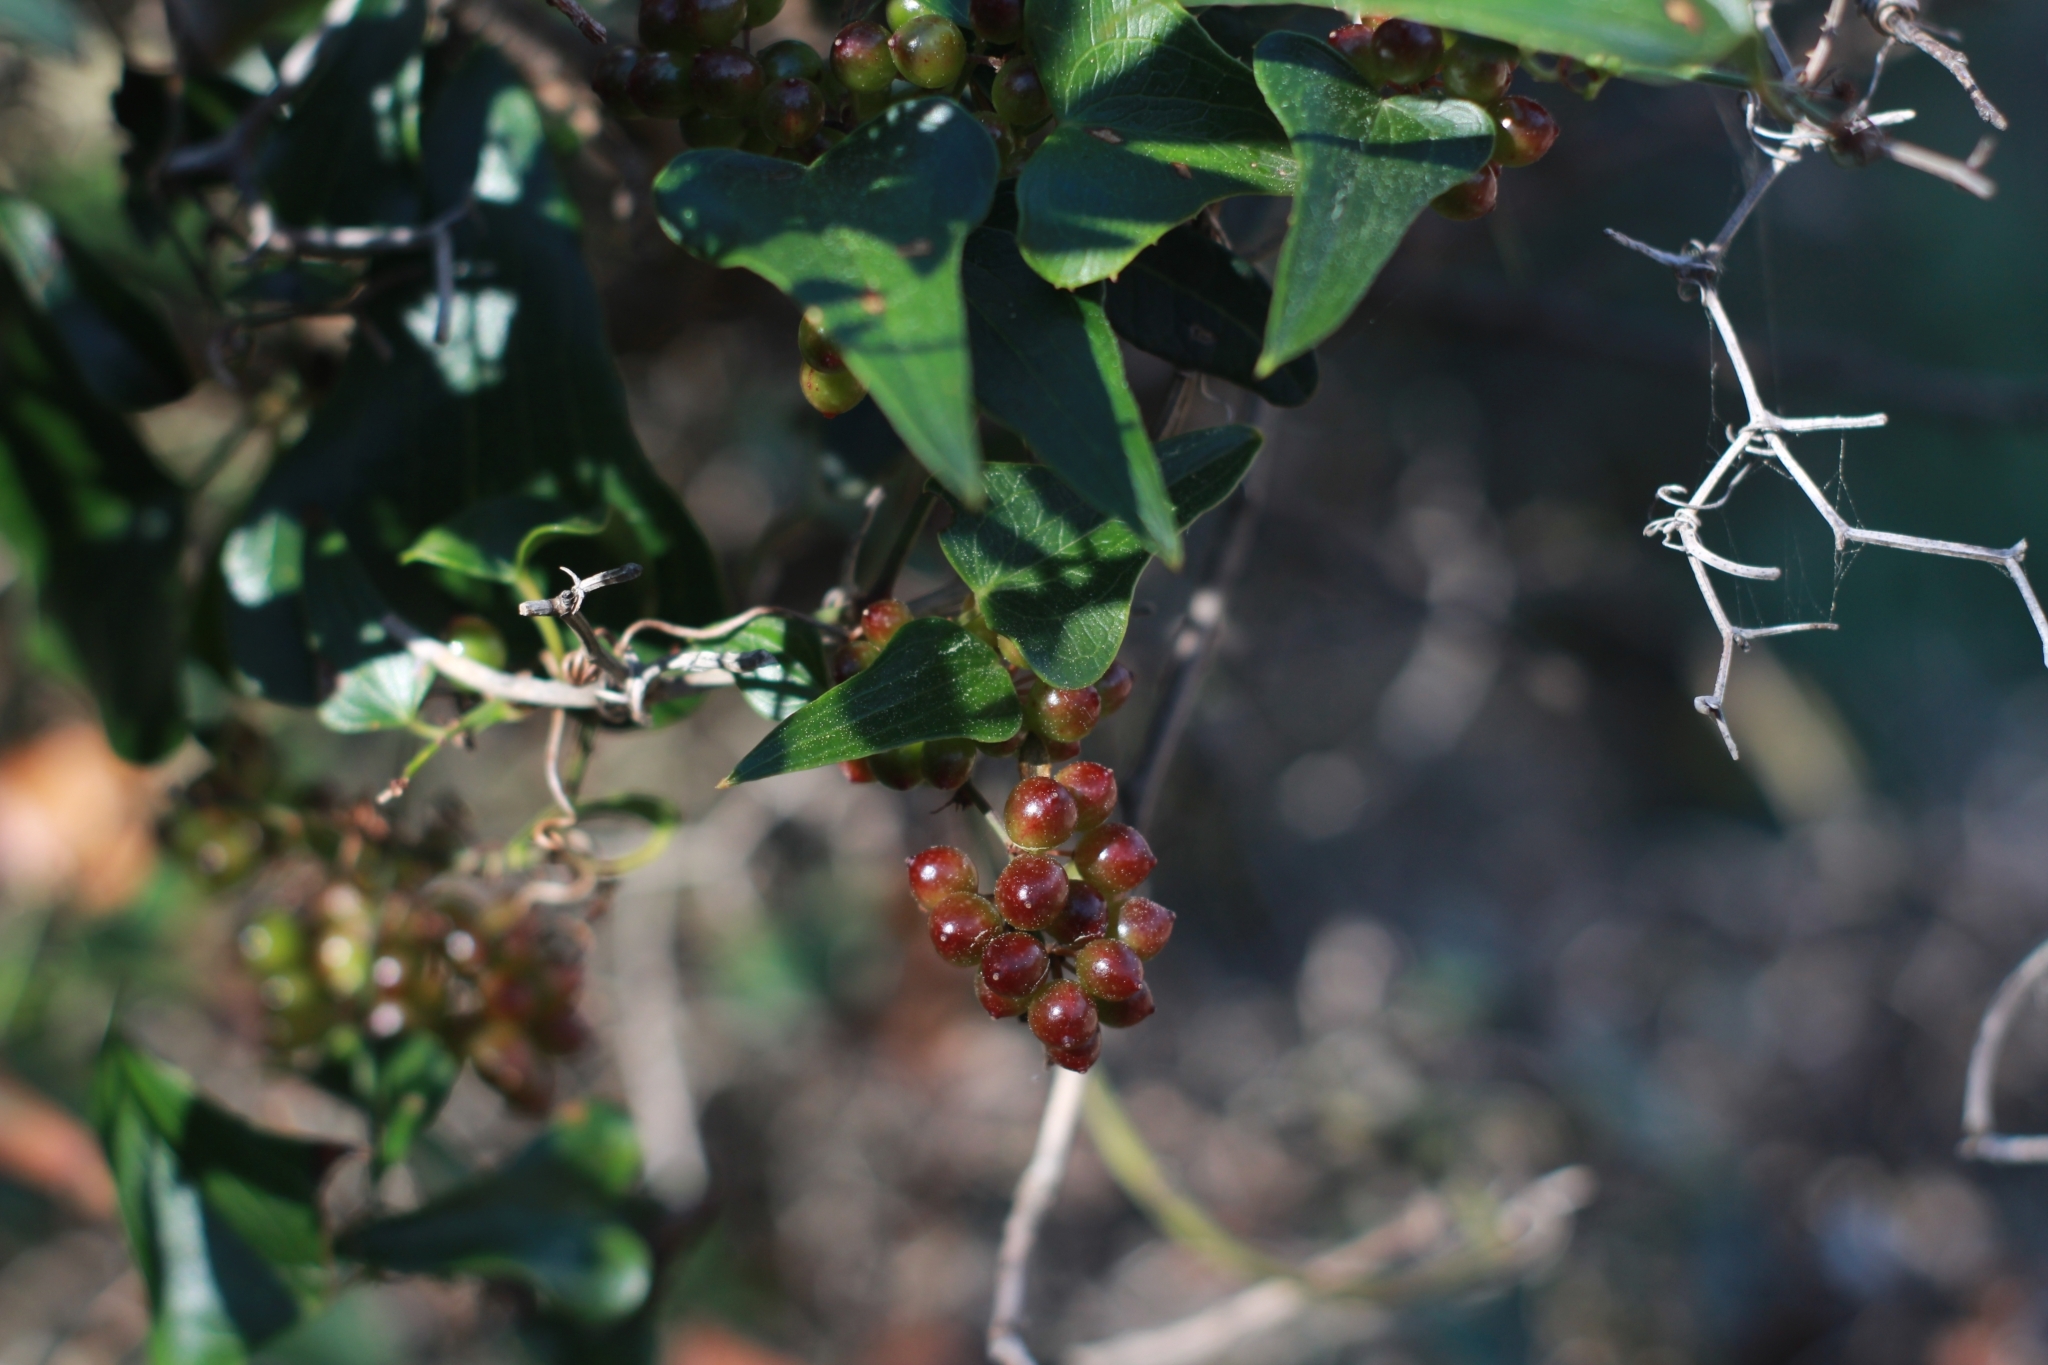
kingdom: Plantae
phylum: Tracheophyta
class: Liliopsida
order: Liliales
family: Smilacaceae
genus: Smilax
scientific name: Smilax aspera
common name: Common smilax
